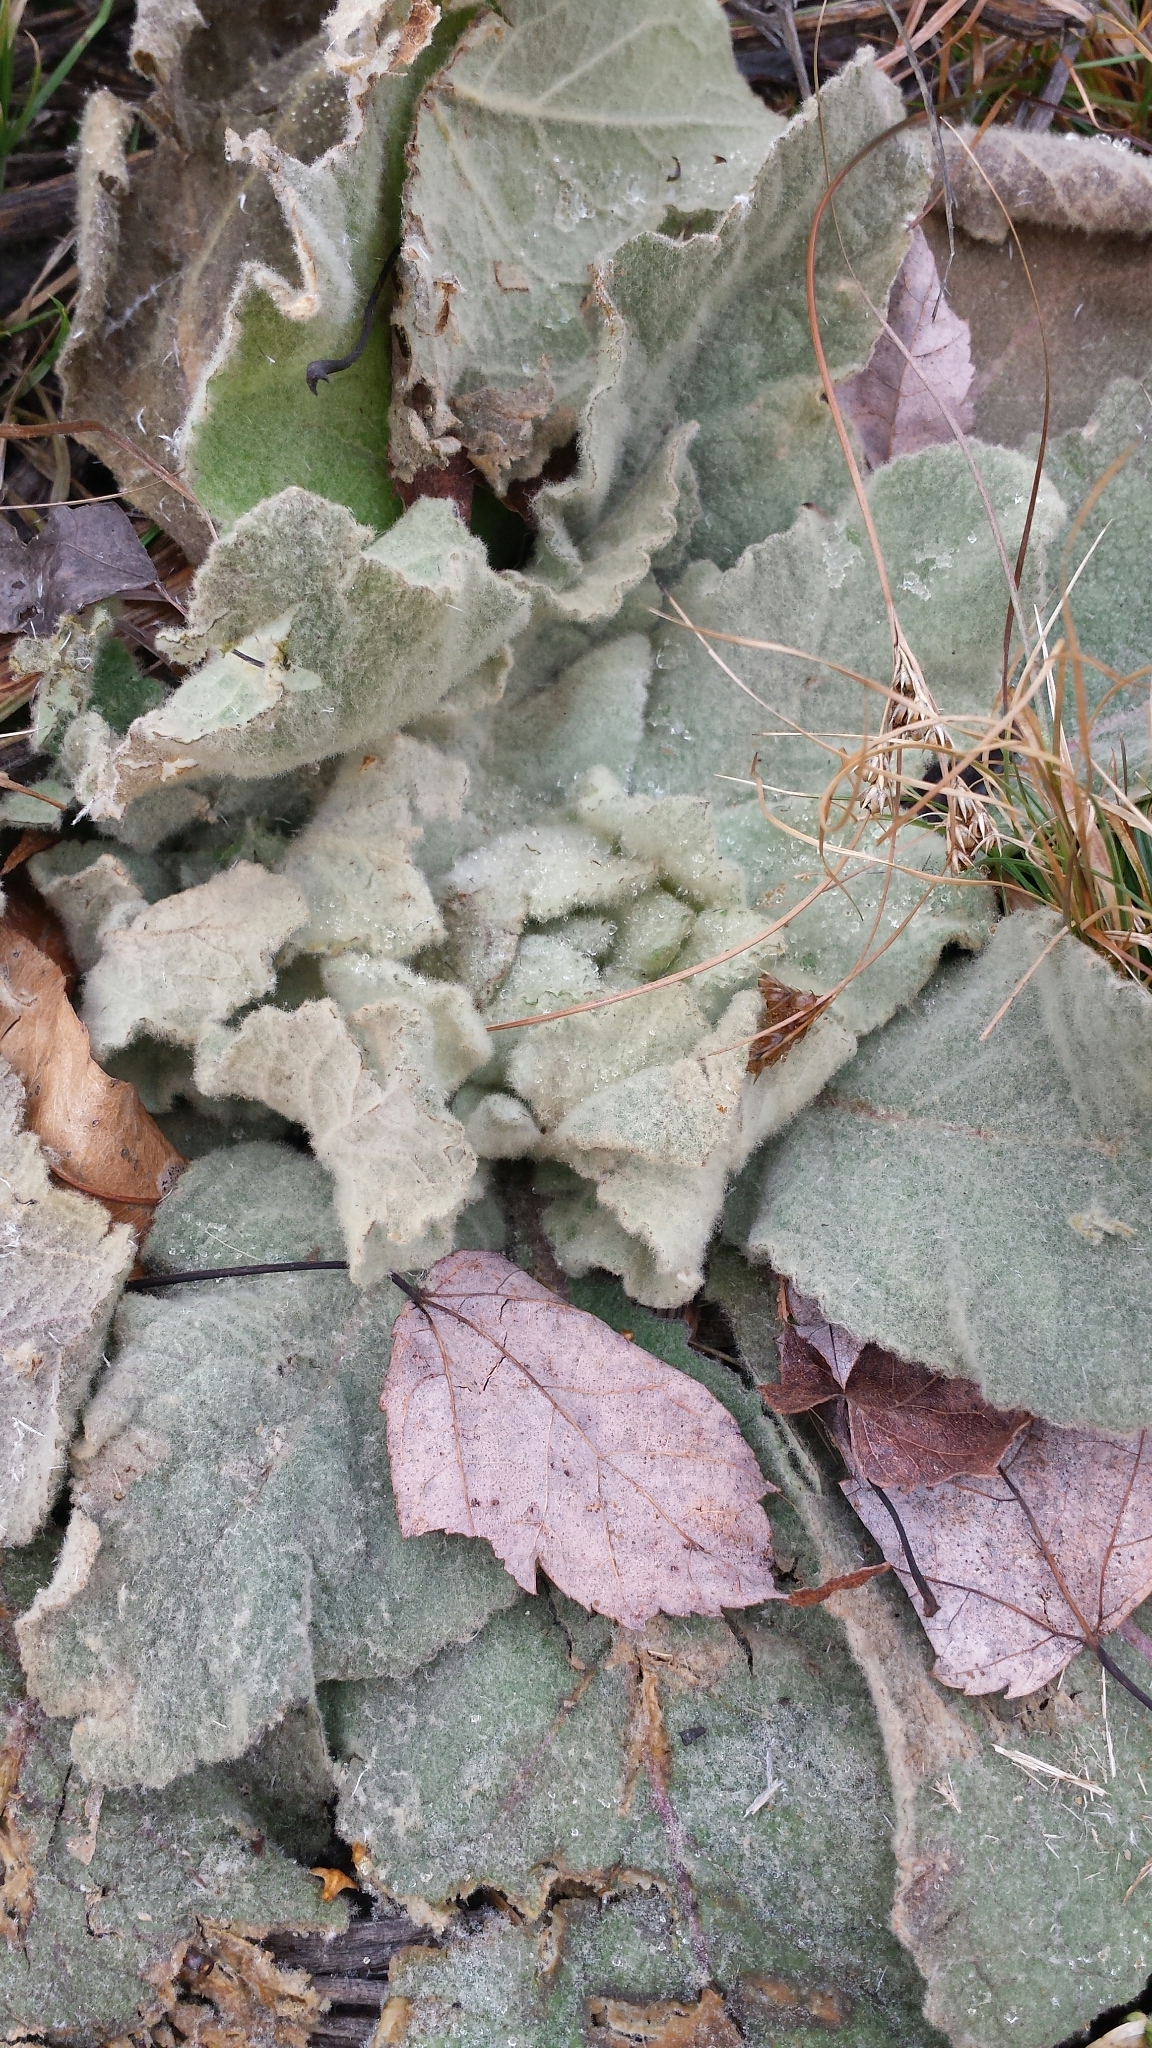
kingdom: Plantae
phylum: Tracheophyta
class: Magnoliopsida
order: Lamiales
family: Scrophulariaceae
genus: Verbascum
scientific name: Verbascum thapsus
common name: Common mullein
